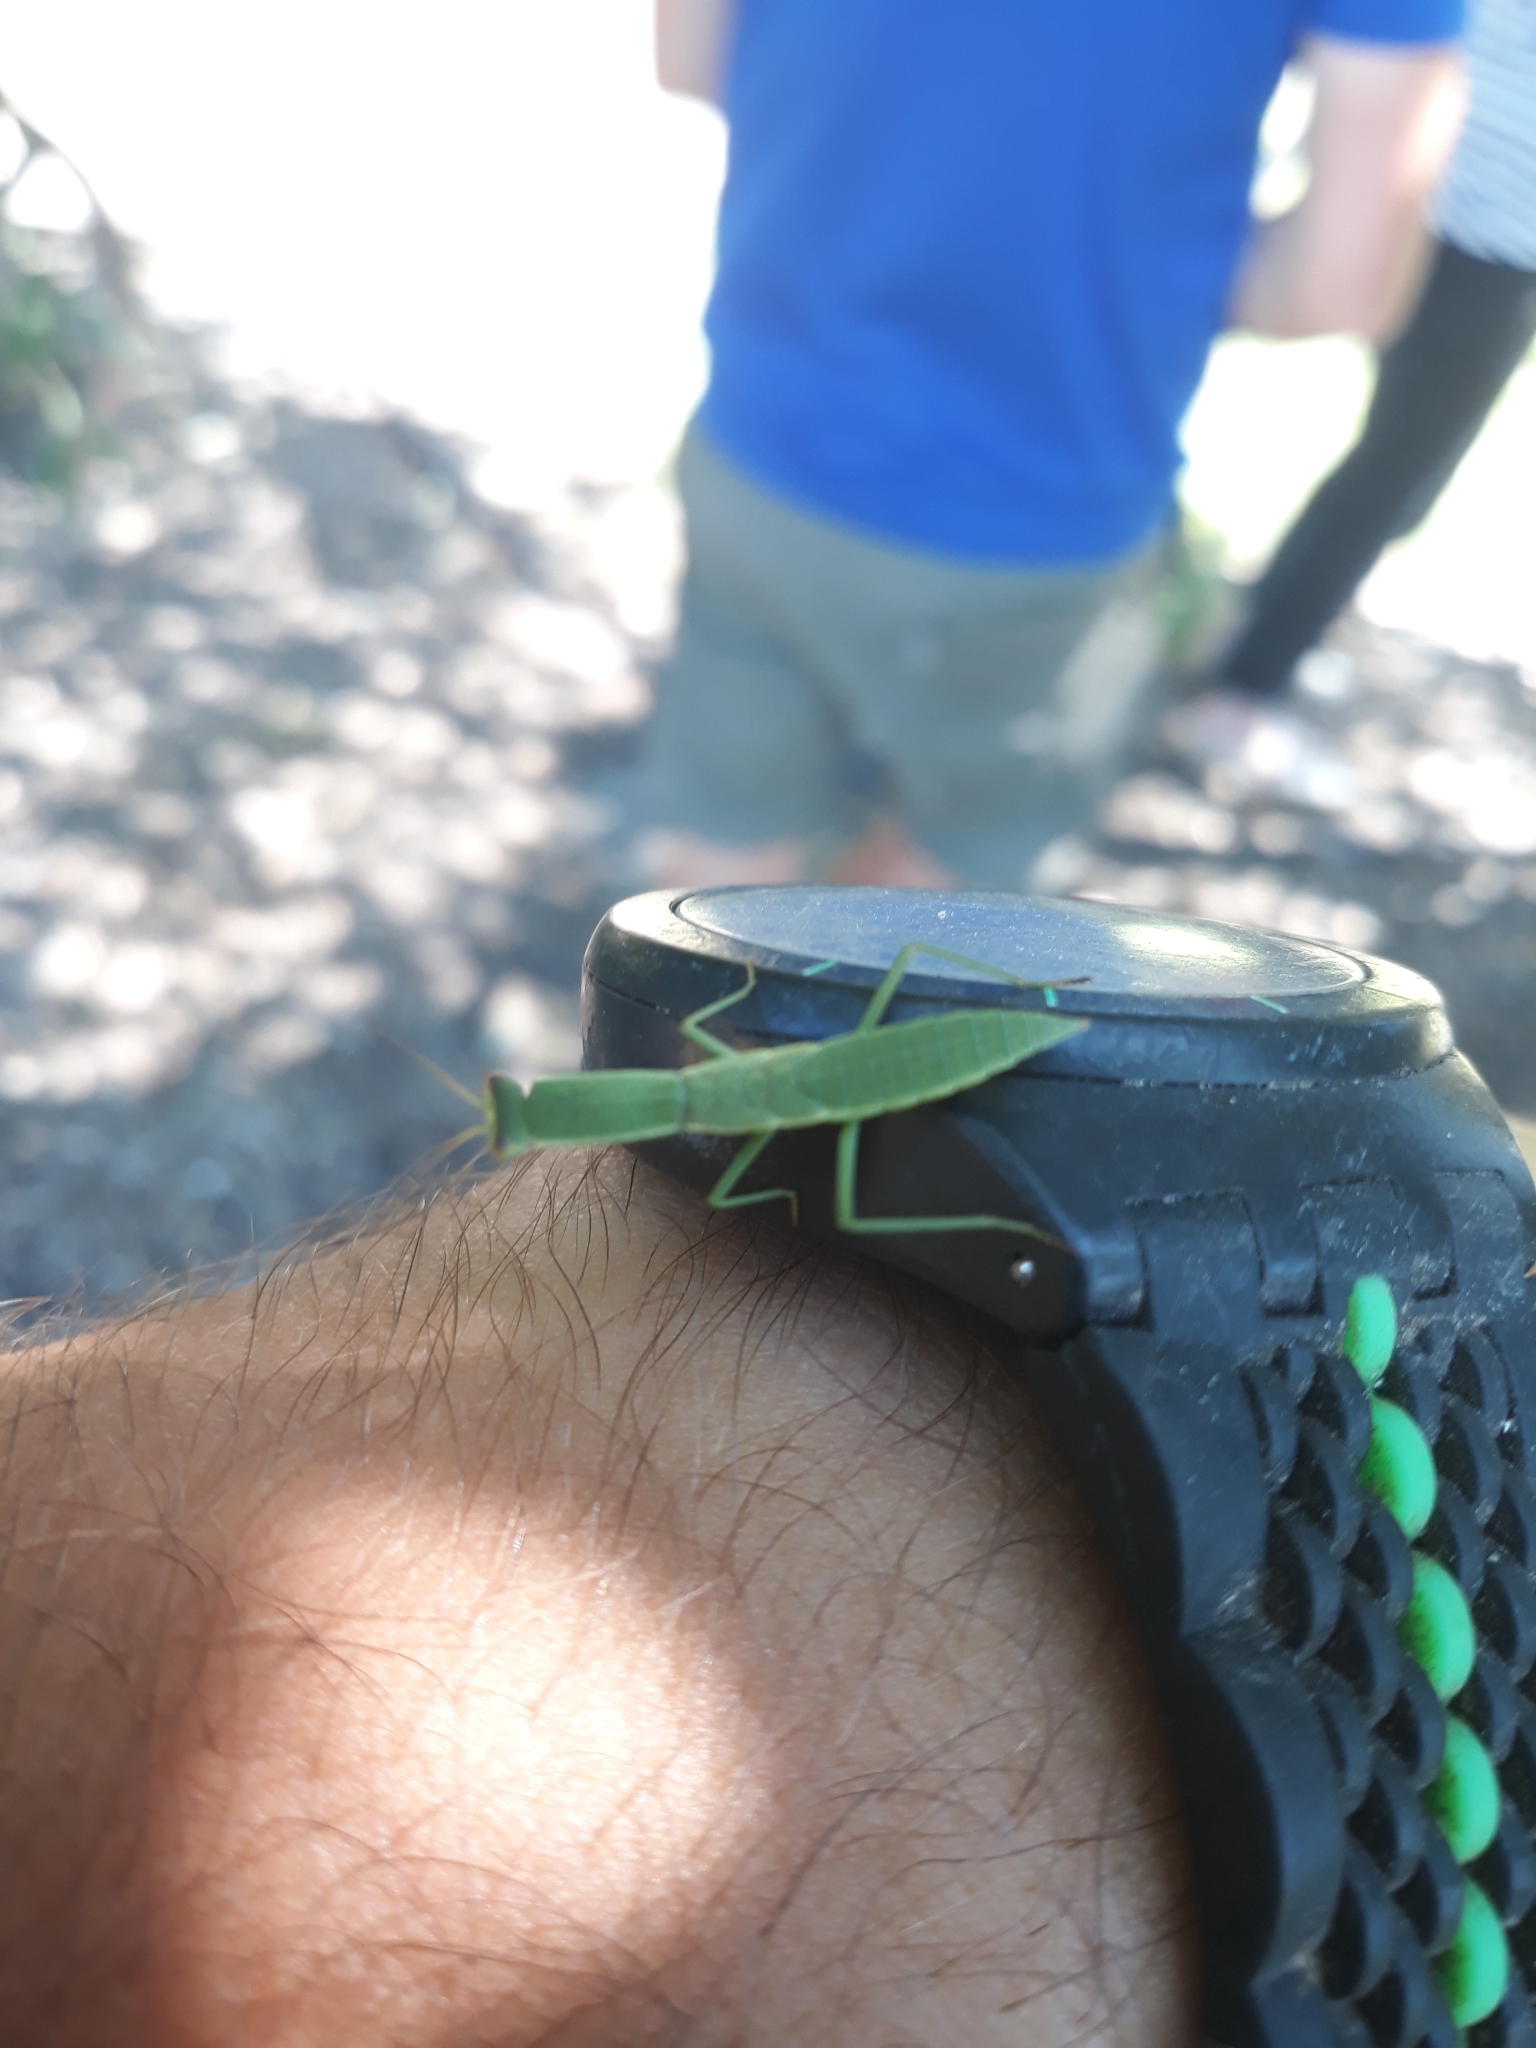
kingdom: Animalia
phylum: Arthropoda
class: Insecta
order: Mantodea
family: Mantidae
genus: Orthodera
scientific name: Orthodera novaezealandiae
